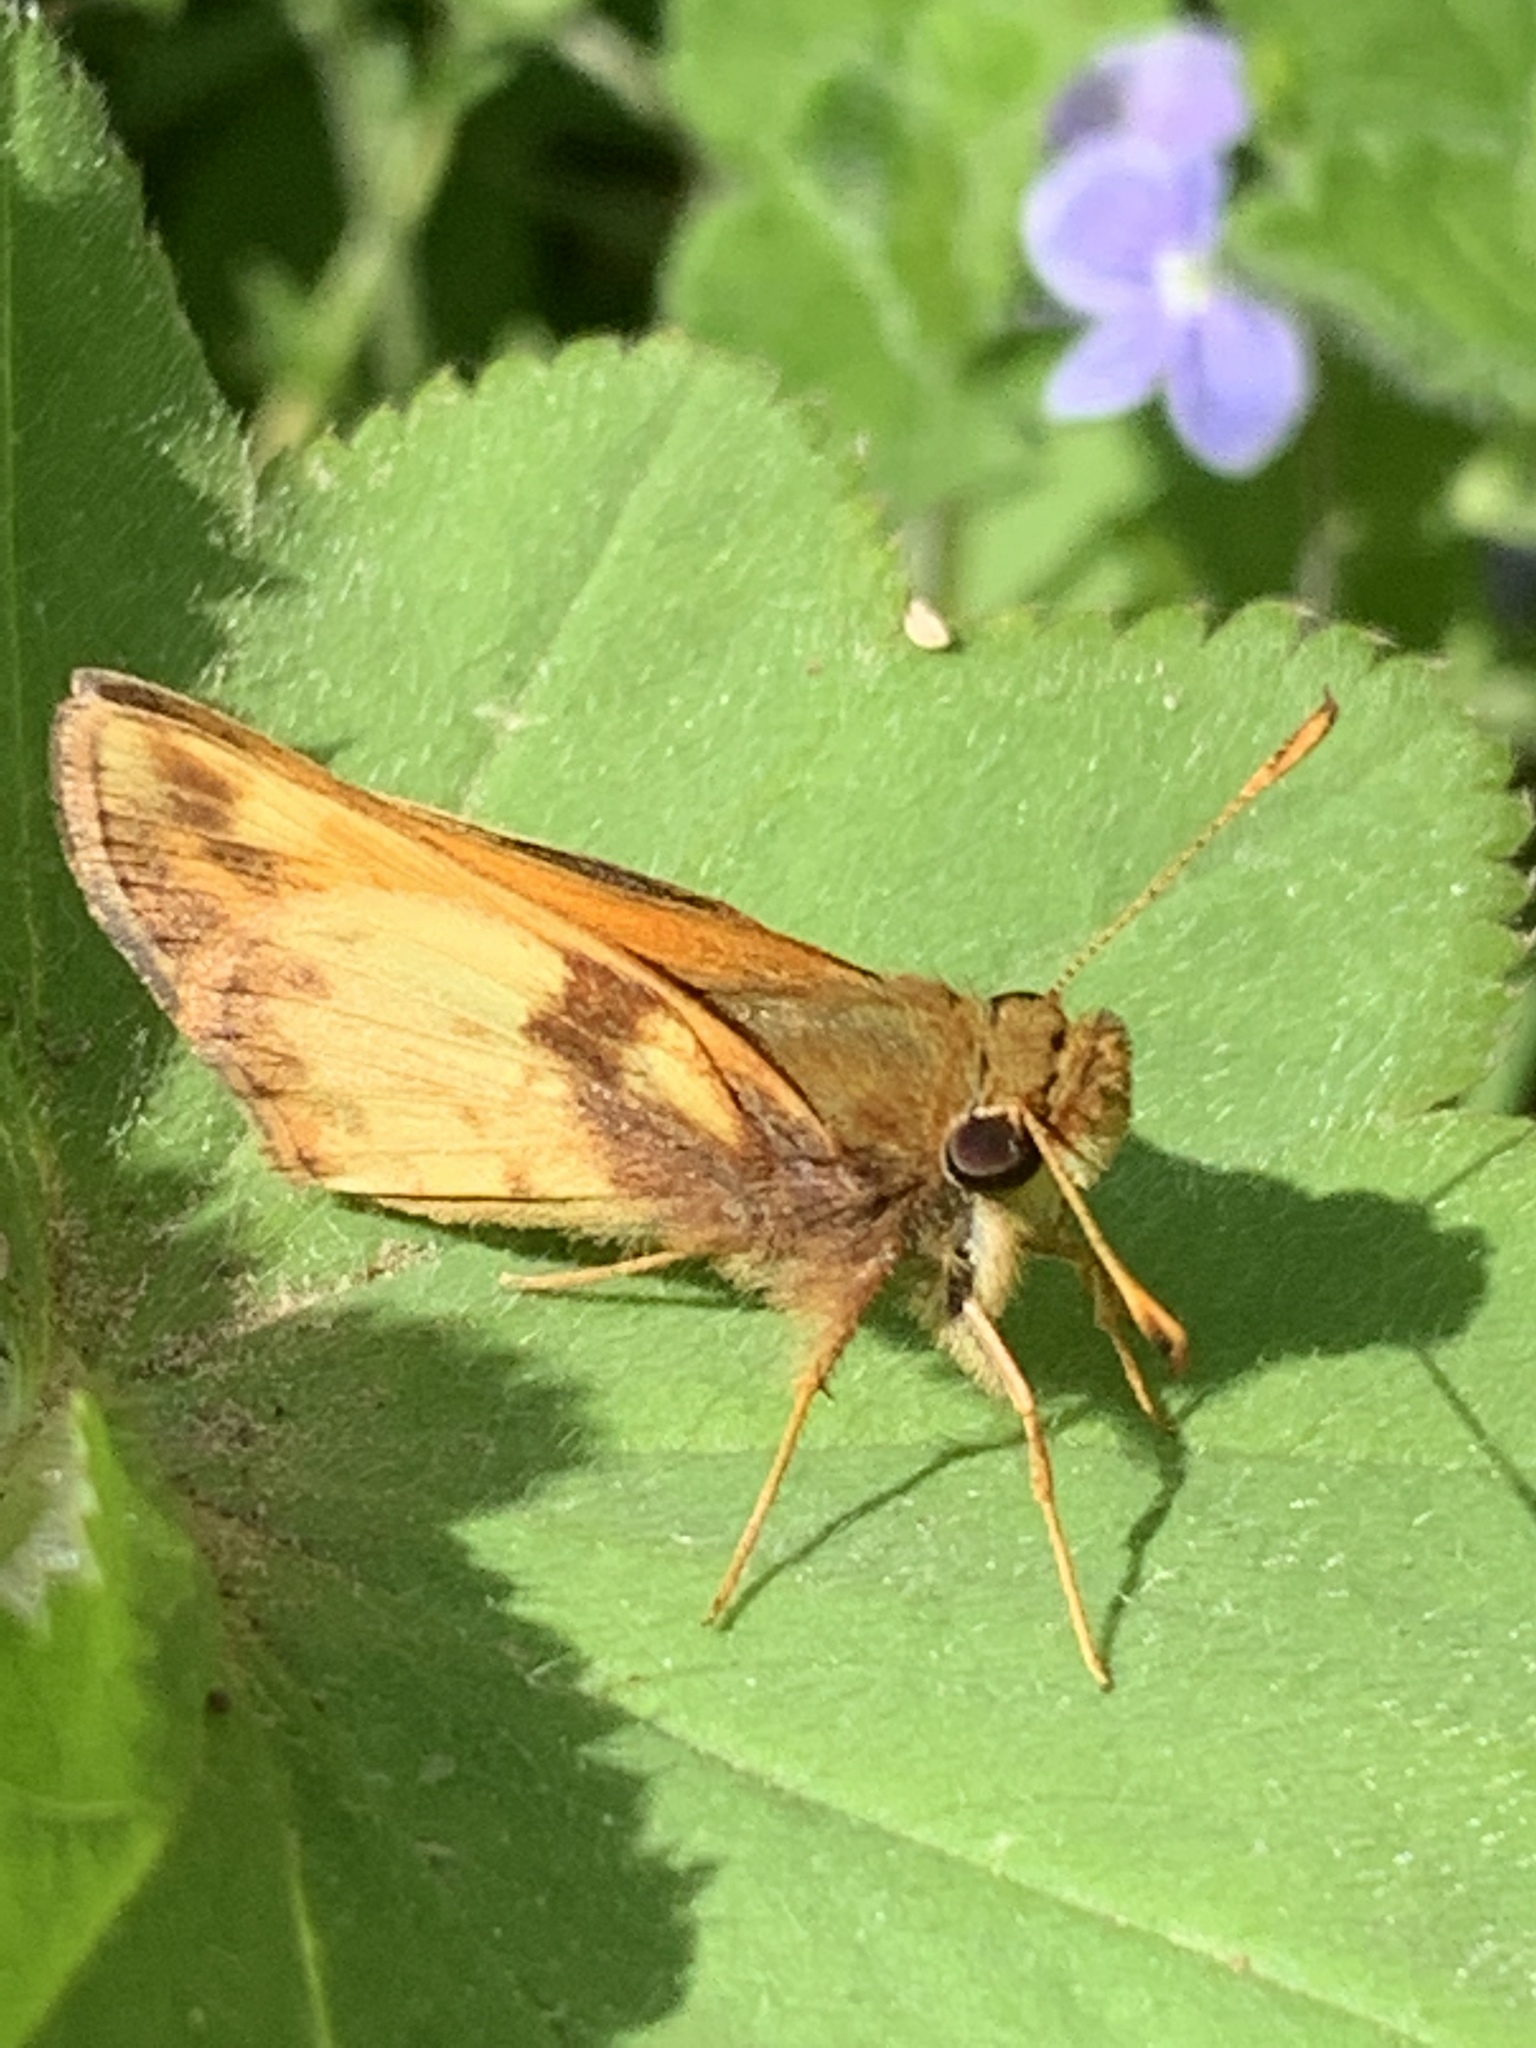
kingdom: Animalia
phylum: Arthropoda
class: Insecta
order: Lepidoptera
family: Hesperiidae
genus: Lon
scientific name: Lon zabulon
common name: Zabulon skipper
